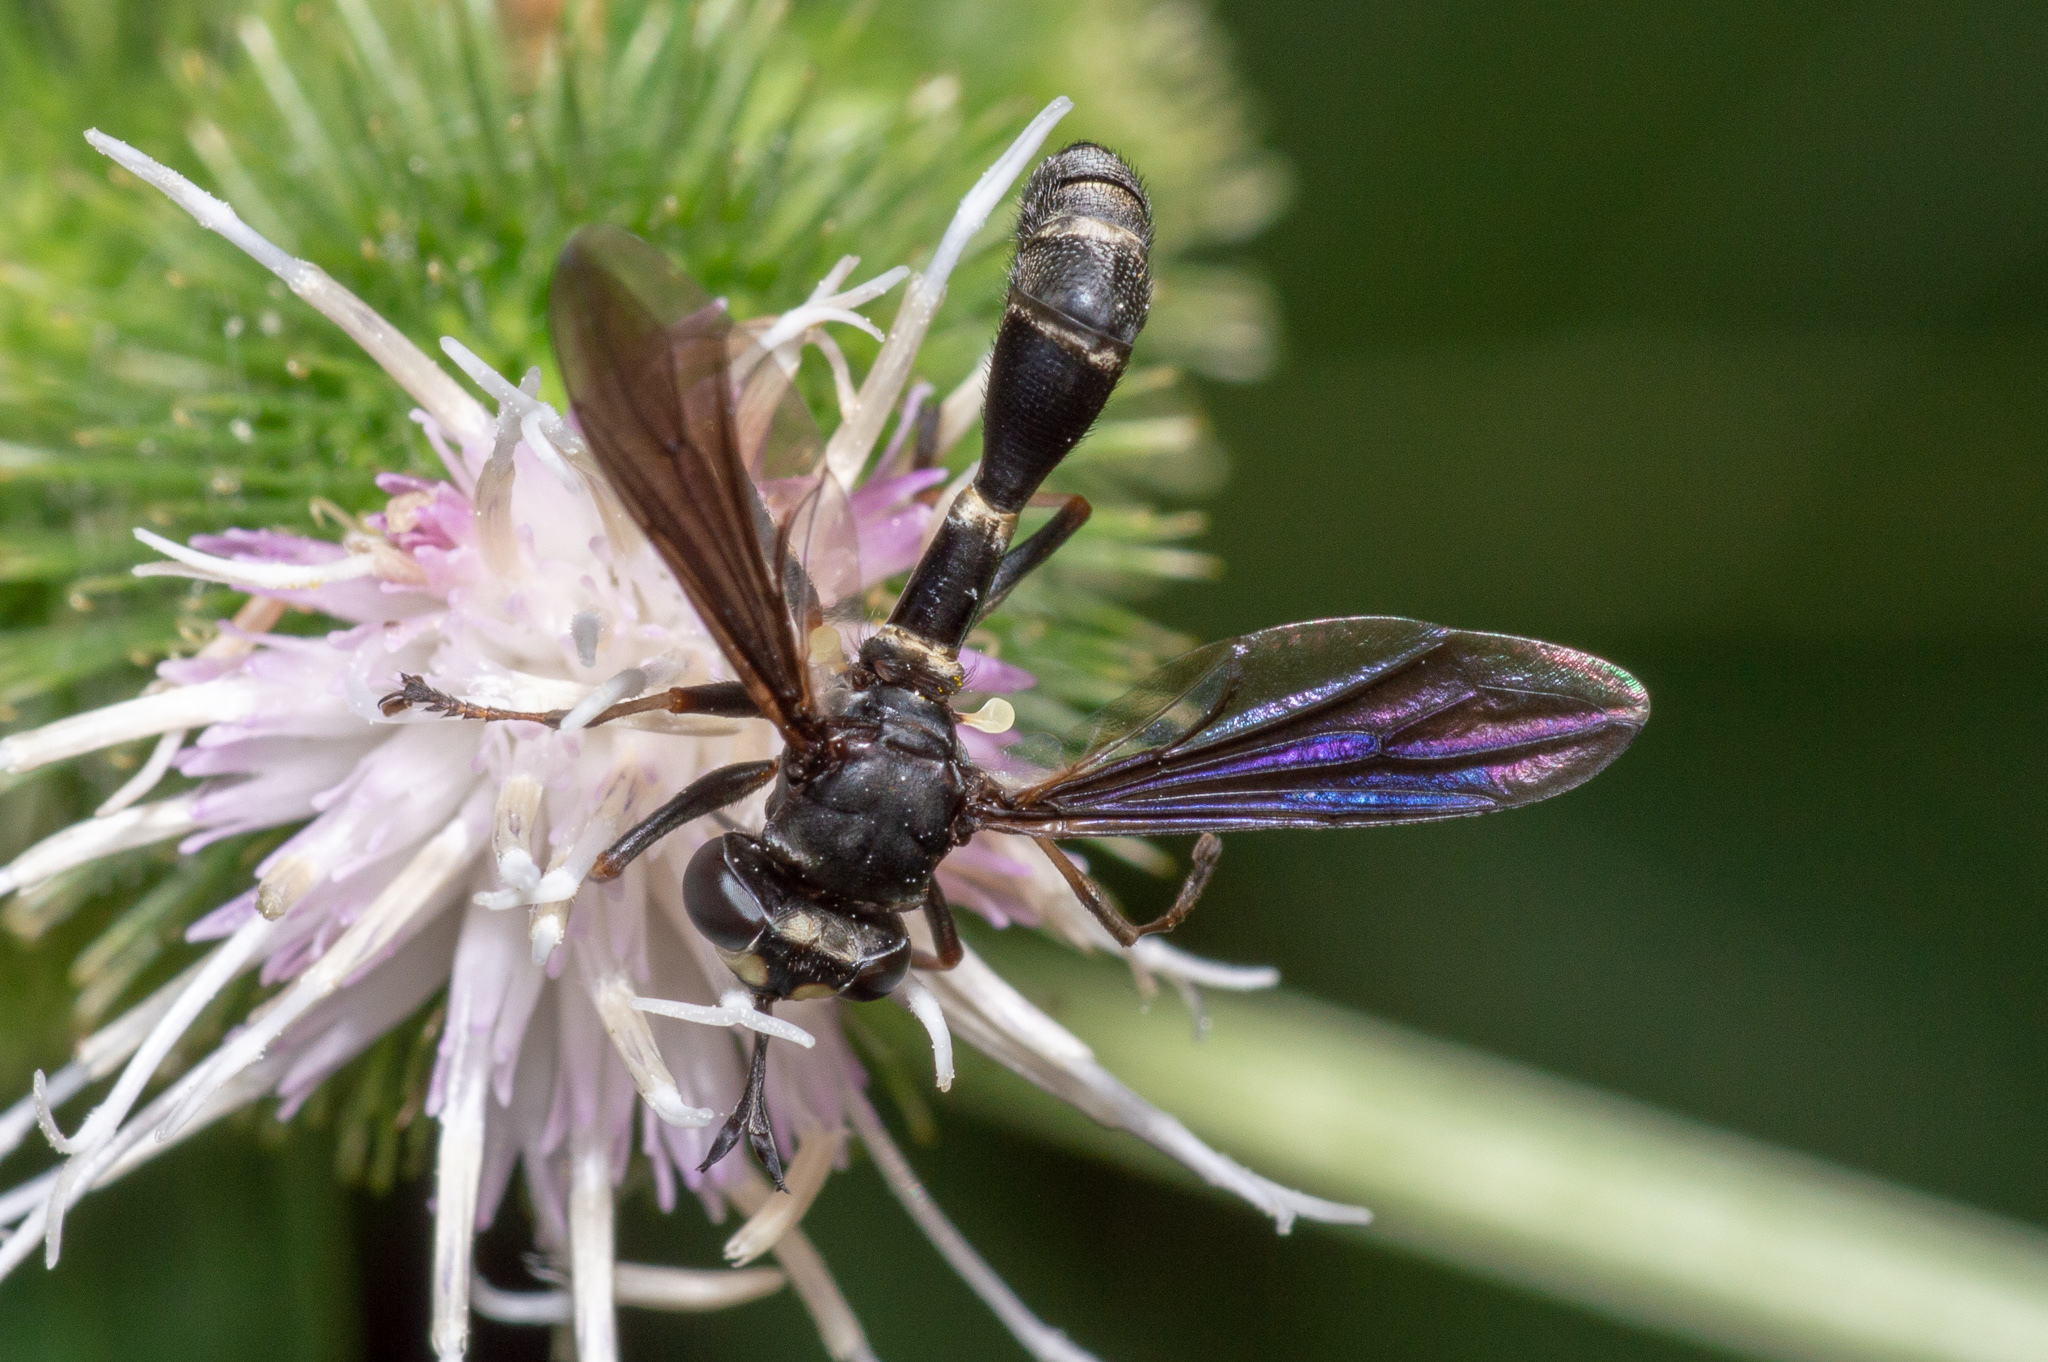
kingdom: Animalia
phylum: Arthropoda
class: Insecta
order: Diptera
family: Conopidae
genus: Physocephala
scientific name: Physocephala tibialis
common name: Common eastern physocephala
